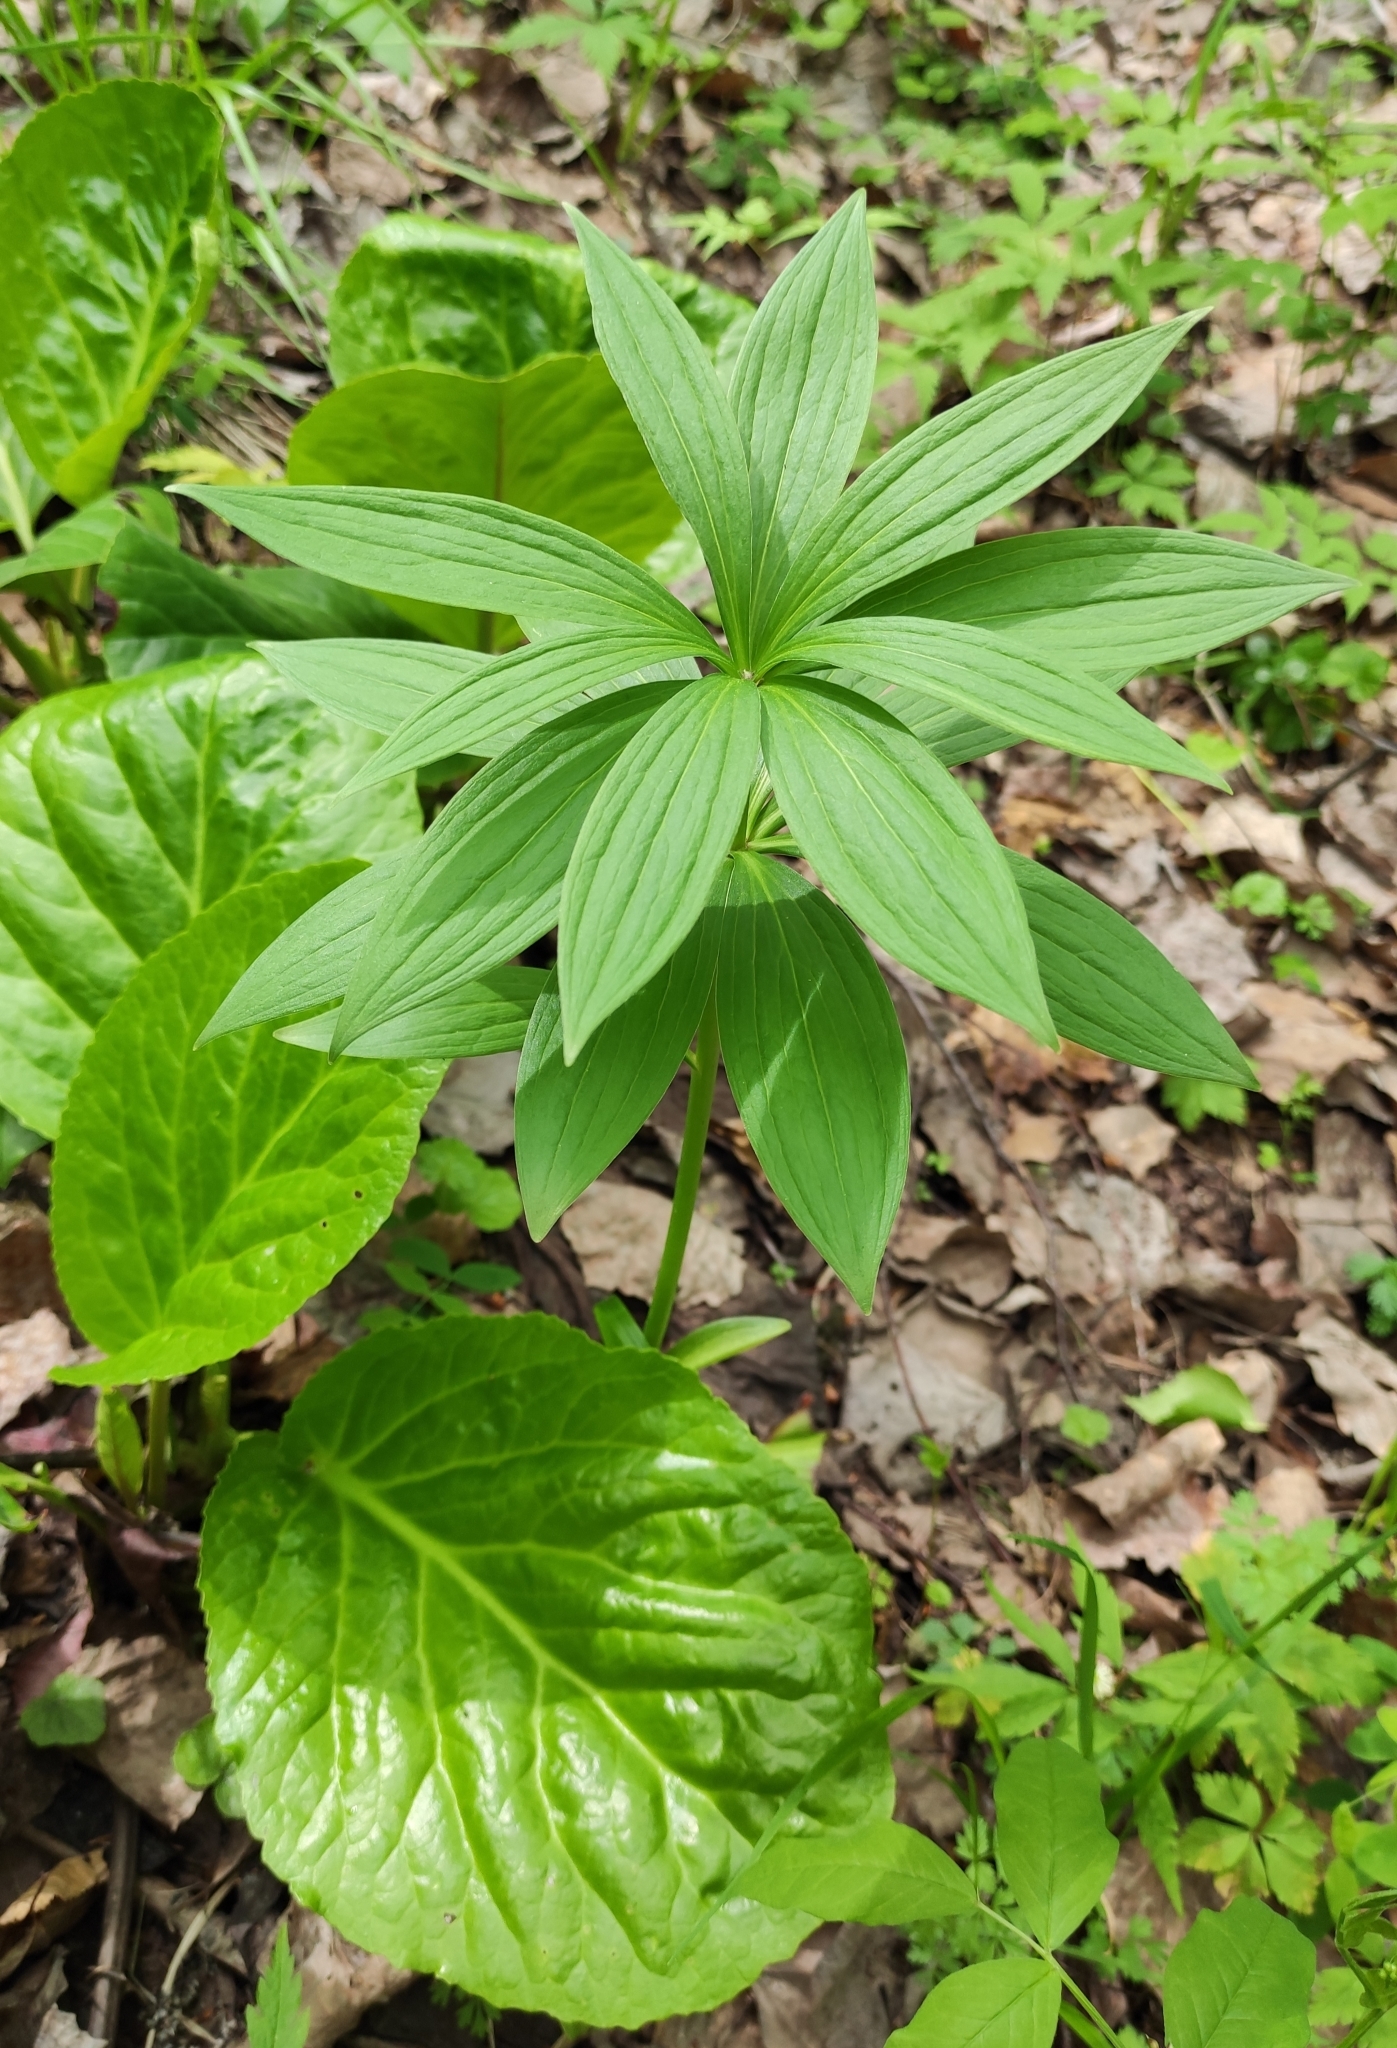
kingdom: Plantae
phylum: Tracheophyta
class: Liliopsida
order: Liliales
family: Liliaceae
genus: Lilium
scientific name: Lilium martagon
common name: Martagon lily
